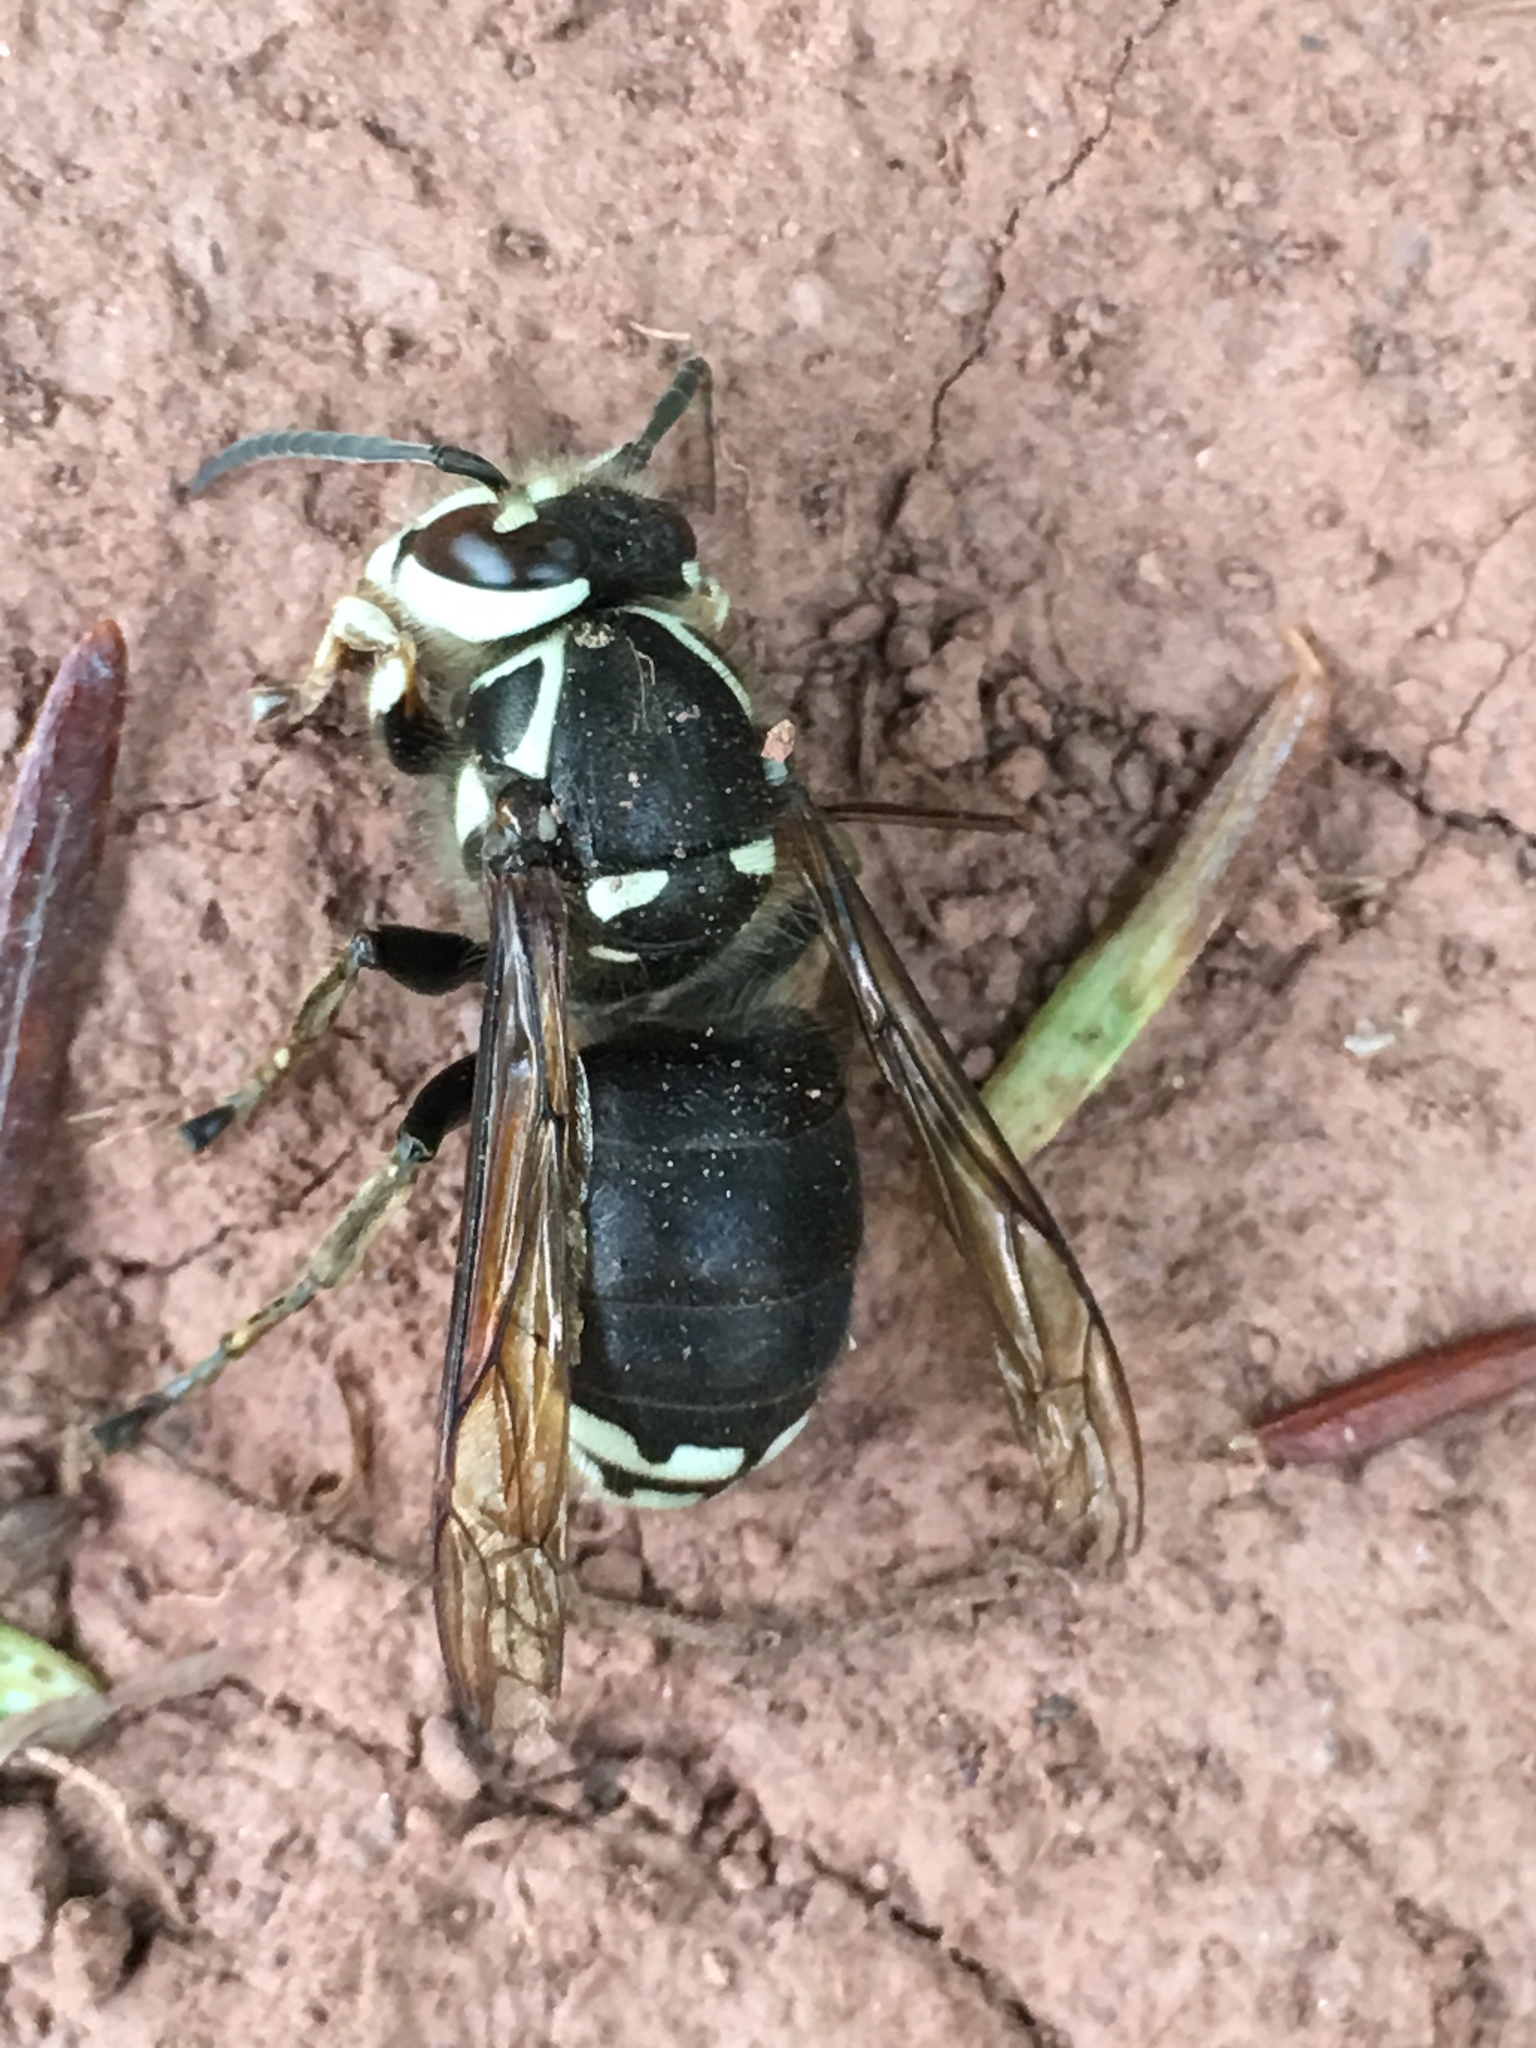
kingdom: Animalia
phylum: Arthropoda
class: Insecta
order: Hymenoptera
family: Vespidae
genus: Dolichovespula
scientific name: Dolichovespula maculata
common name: Bald-faced hornet
